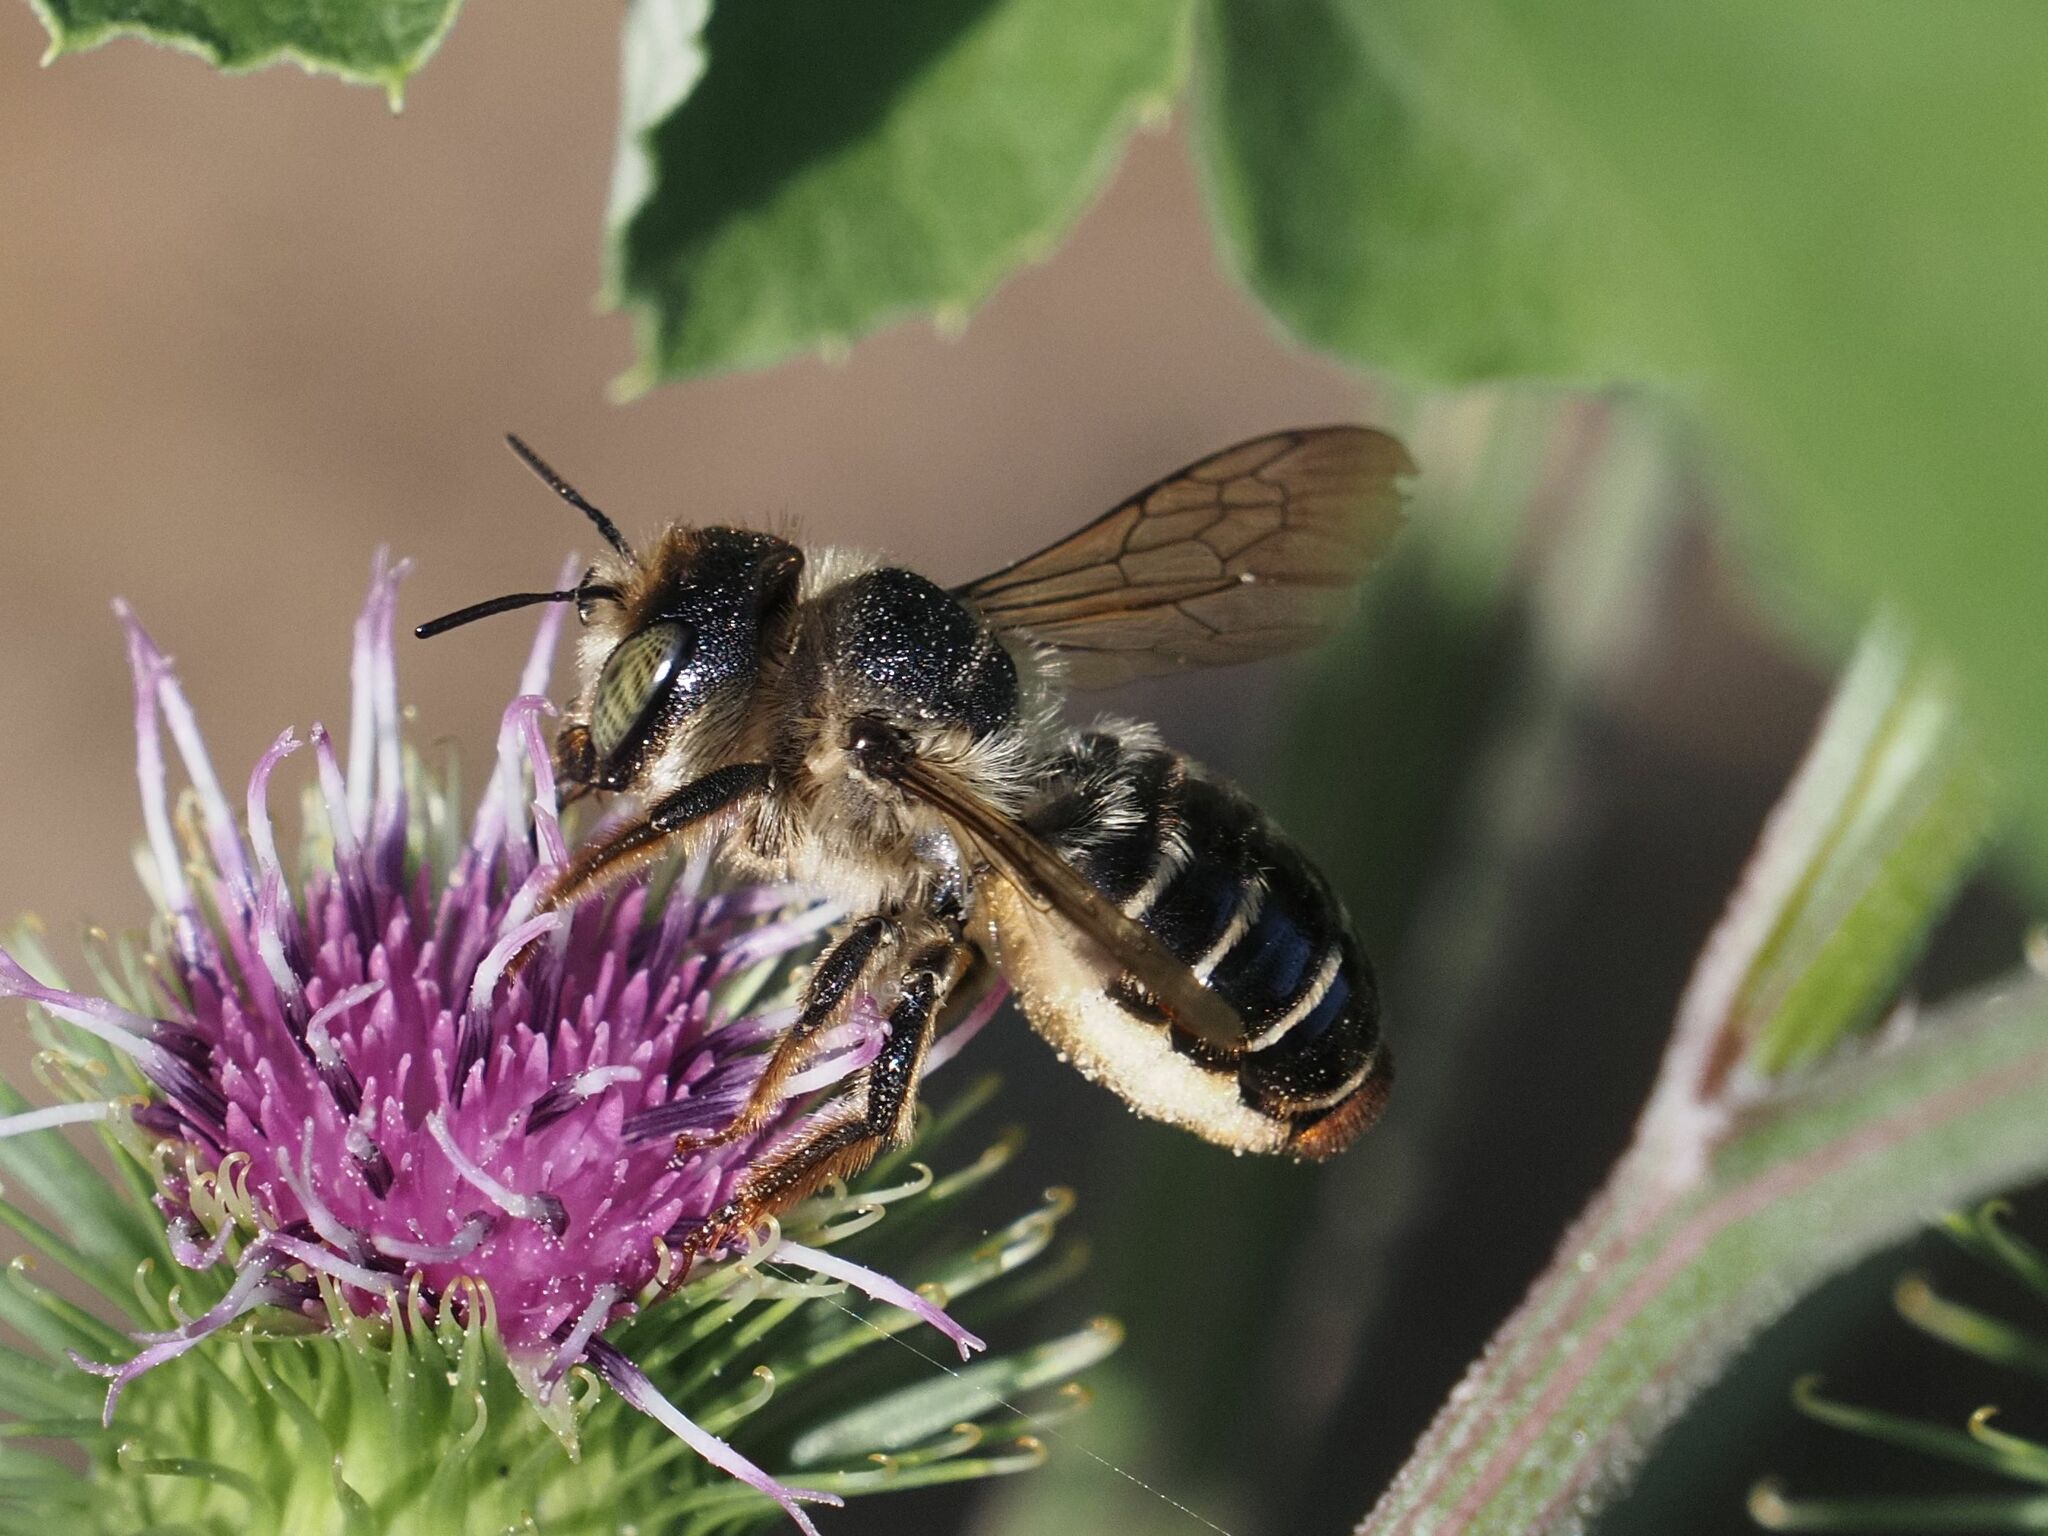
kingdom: Animalia
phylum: Arthropoda
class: Insecta
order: Hymenoptera
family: Megachilidae
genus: Lithurgus
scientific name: Lithurgus cornutus
